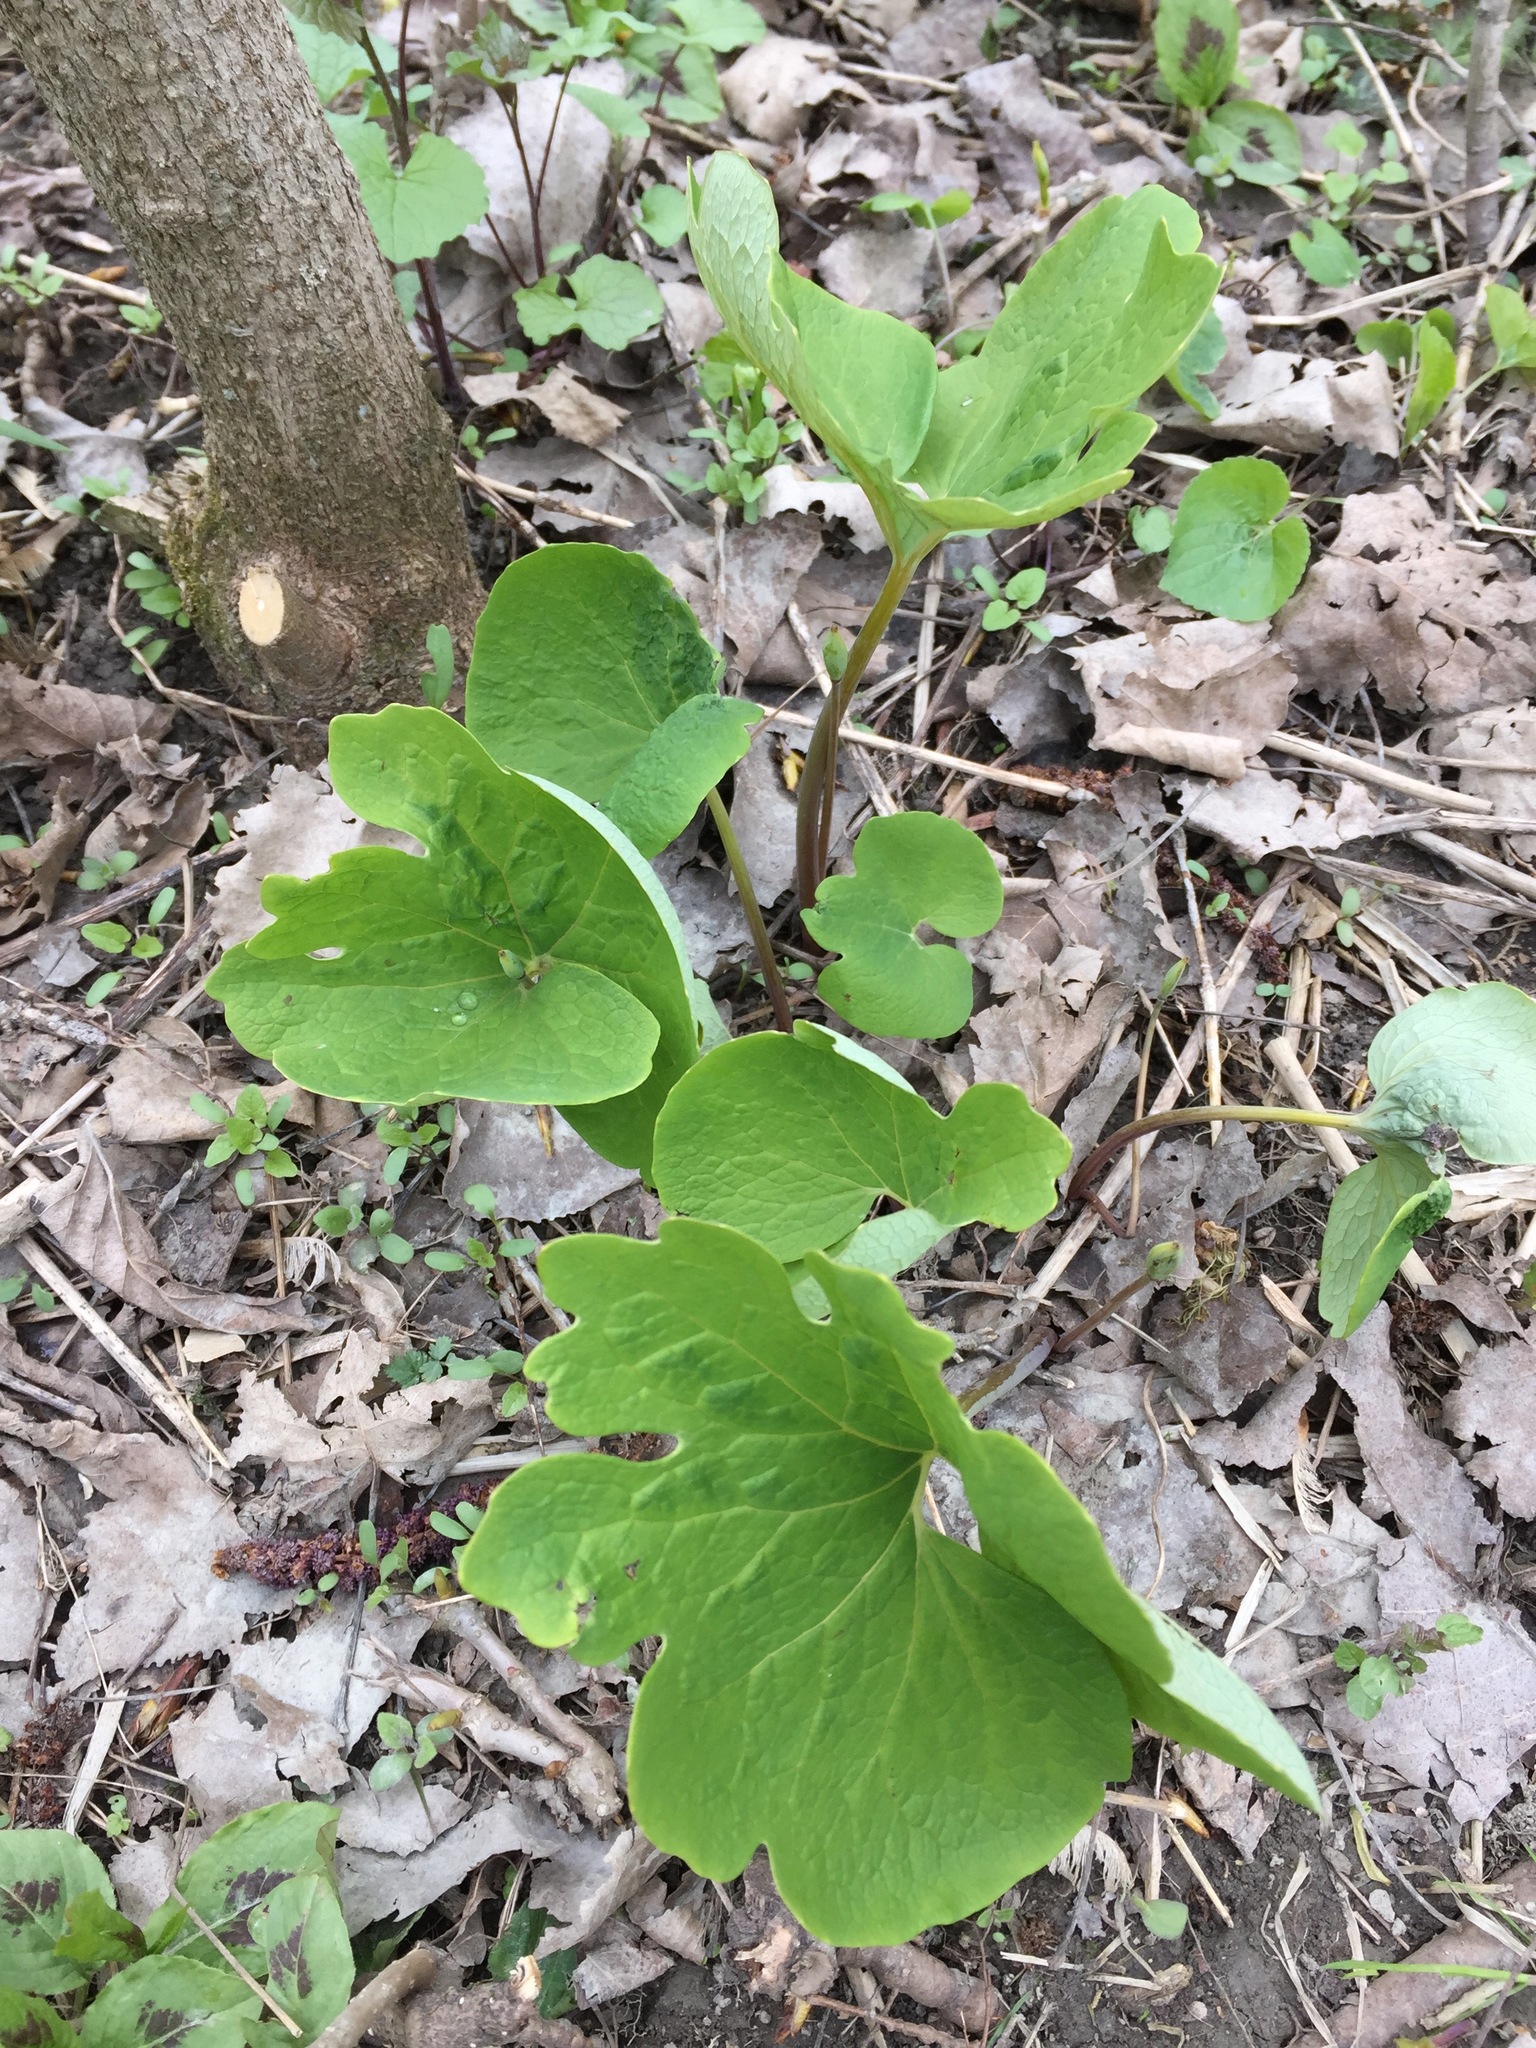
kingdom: Plantae
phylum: Tracheophyta
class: Magnoliopsida
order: Ranunculales
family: Papaveraceae
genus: Sanguinaria
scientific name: Sanguinaria canadensis
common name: Bloodroot
